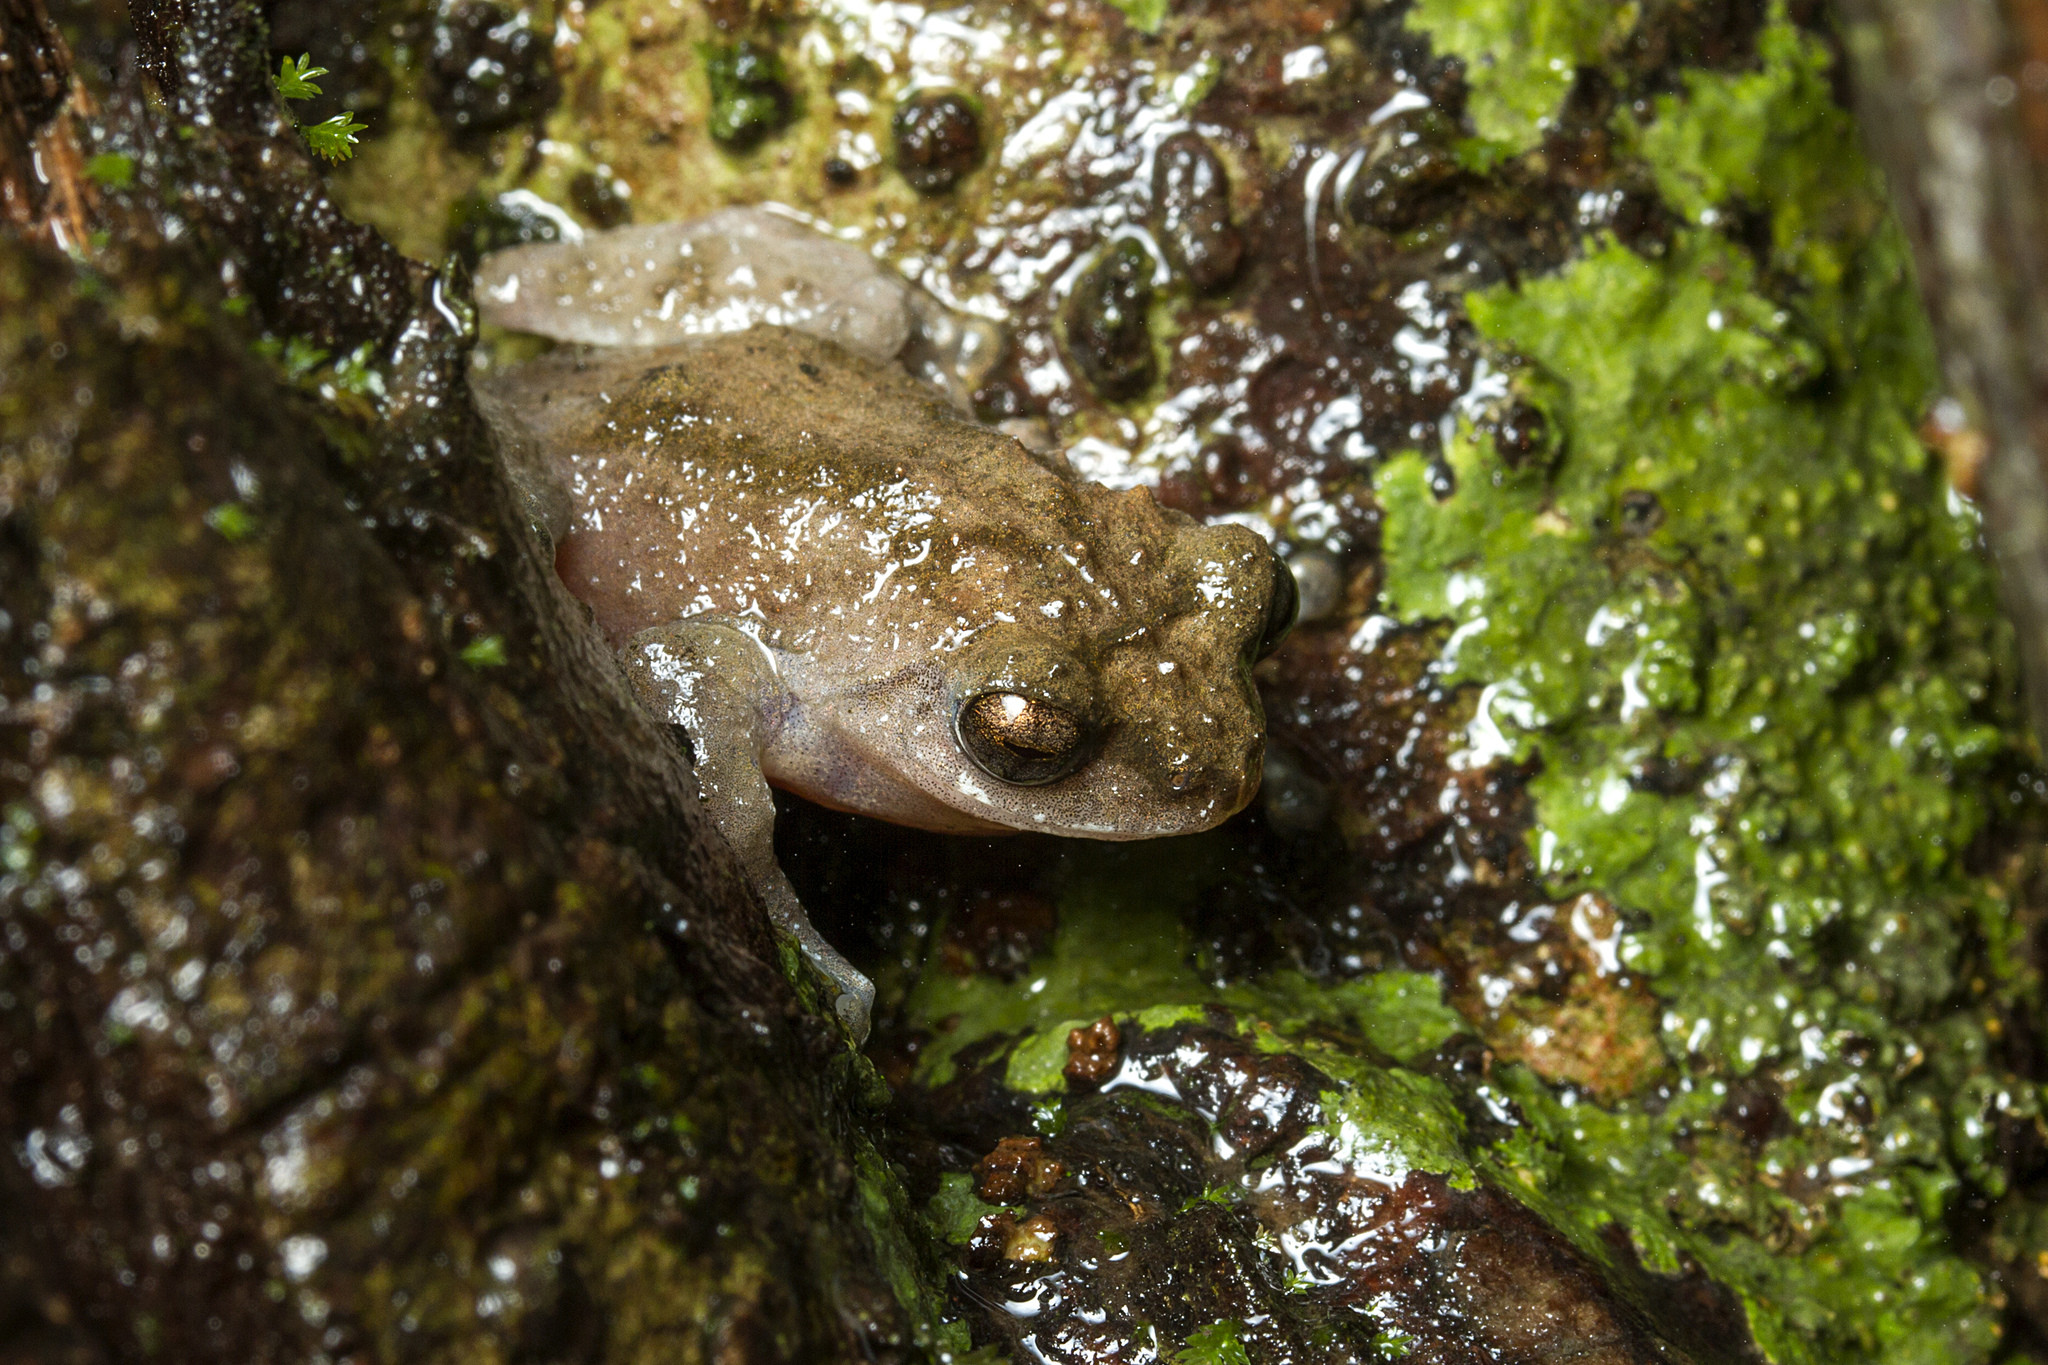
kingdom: Animalia
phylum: Chordata
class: Amphibia
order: Anura
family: Rhacophoridae
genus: Raorchestes
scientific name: Raorchestes bombayensis
